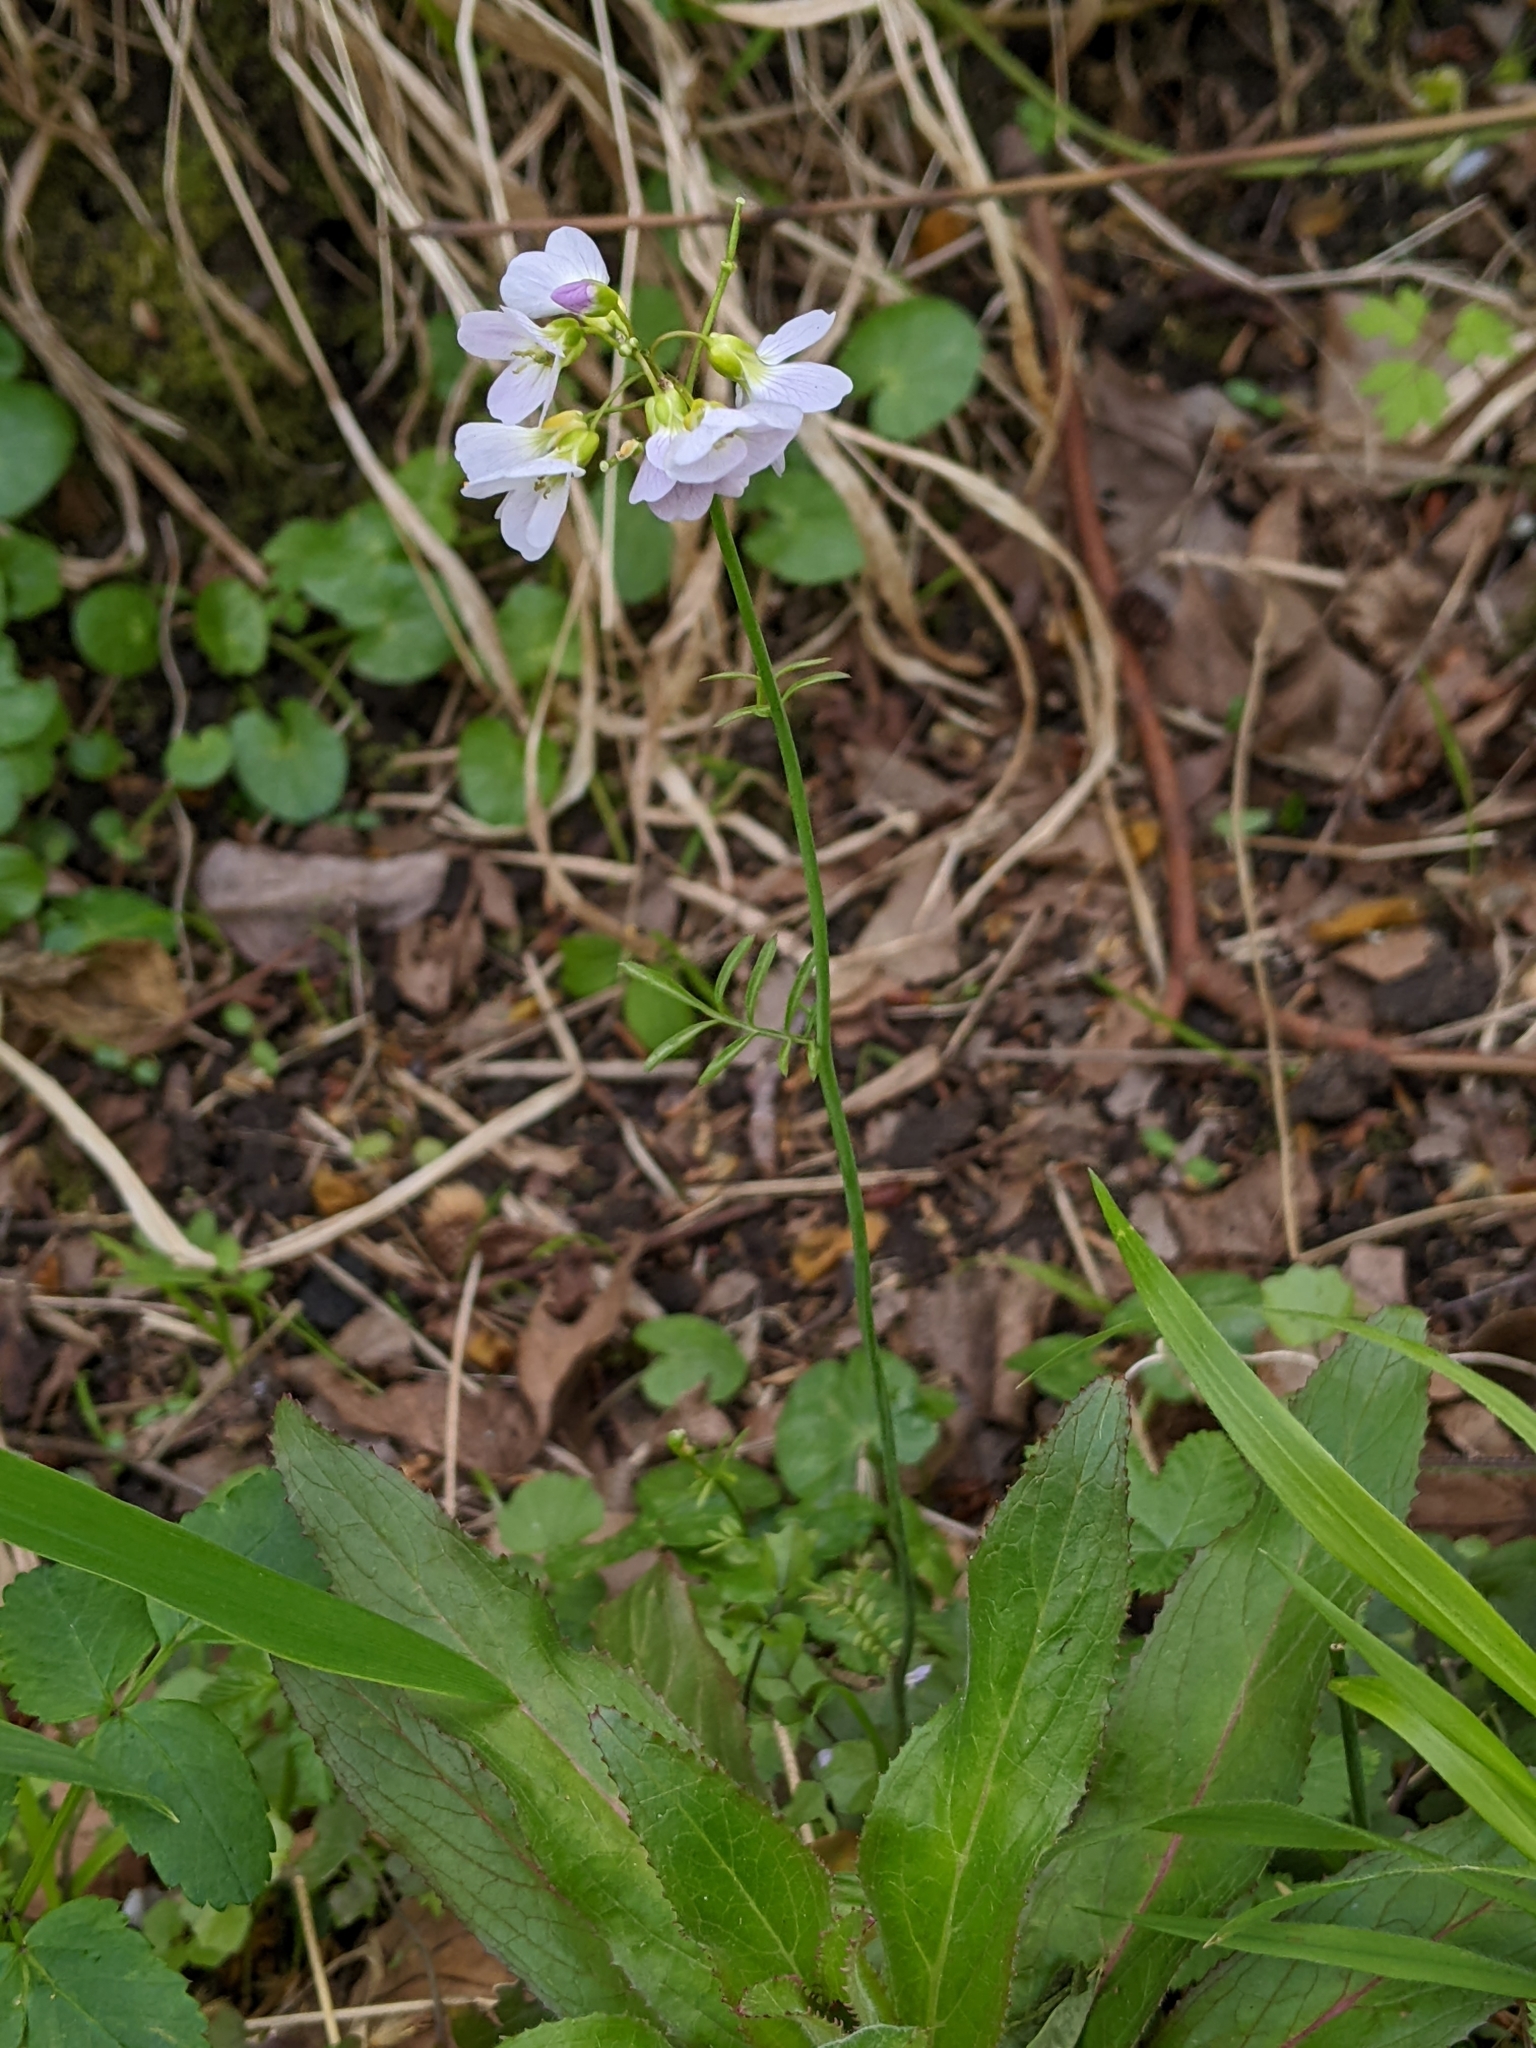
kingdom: Plantae
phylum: Tracheophyta
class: Magnoliopsida
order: Brassicales
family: Brassicaceae
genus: Cardamine
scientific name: Cardamine pratensis
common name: Cuckoo flower
